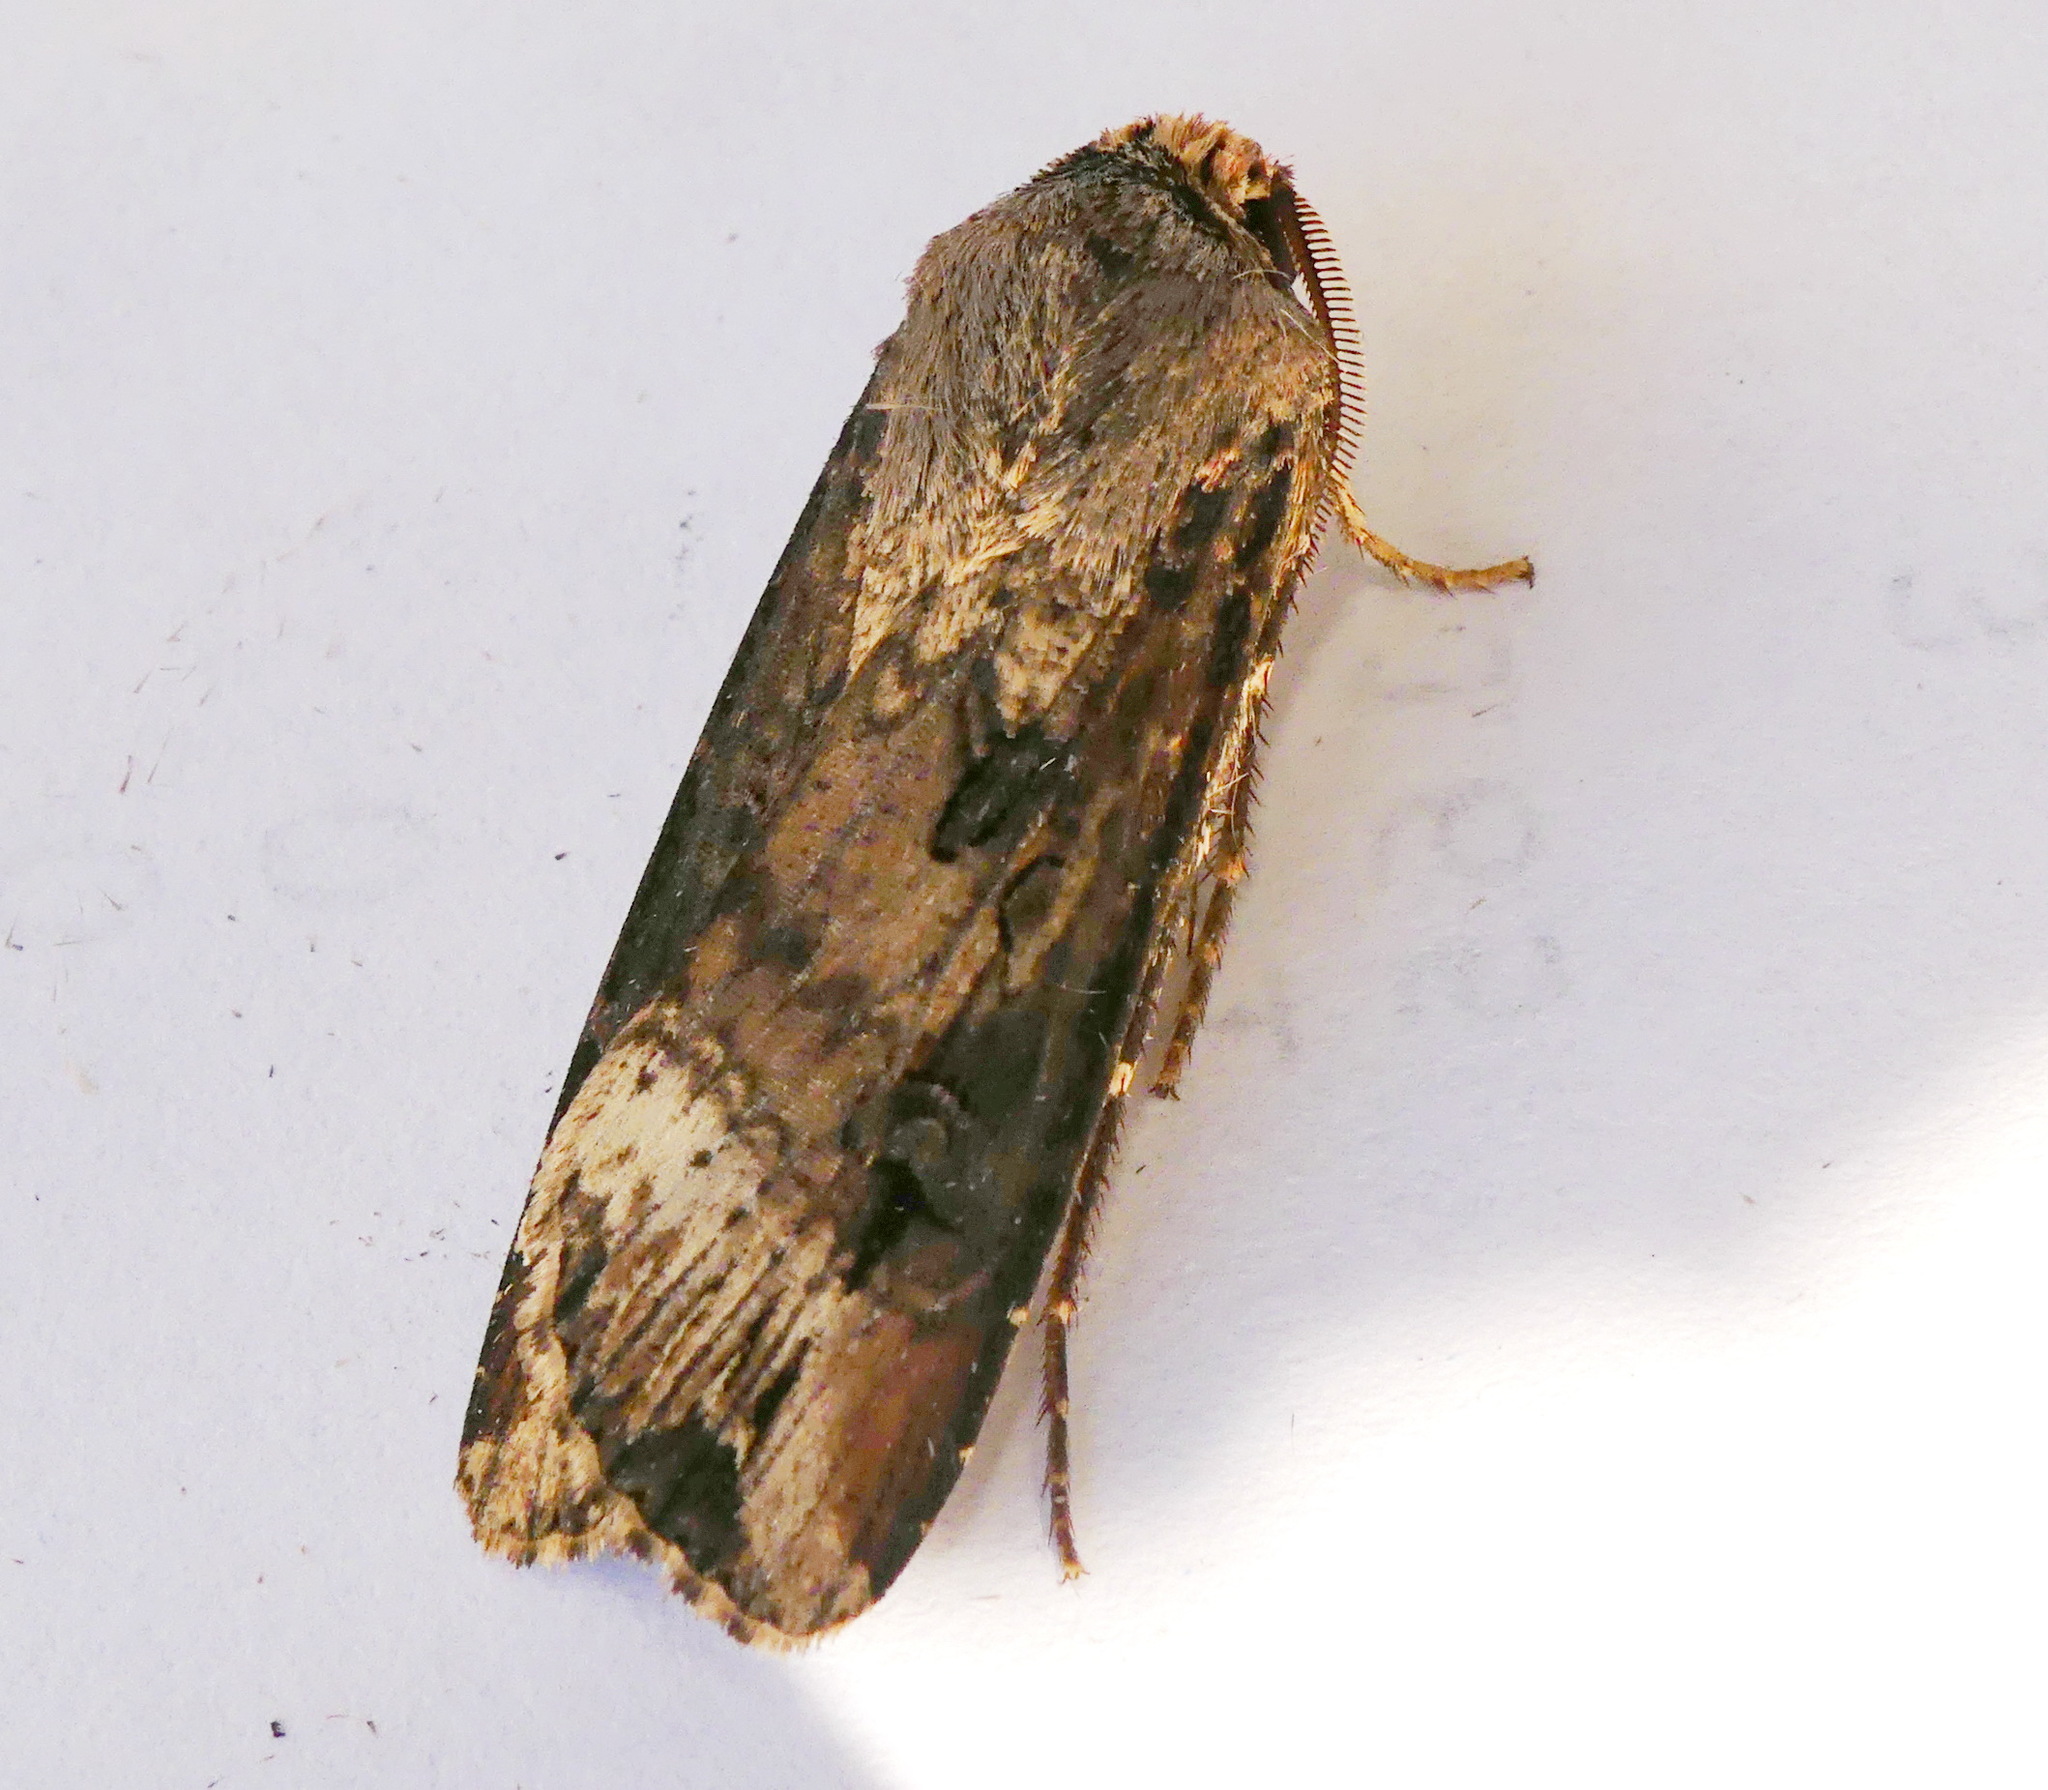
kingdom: Animalia
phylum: Arthropoda
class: Insecta
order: Lepidoptera
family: Noctuidae
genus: Agrotis
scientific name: Agrotis ipsilon
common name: Dark sword-grass
